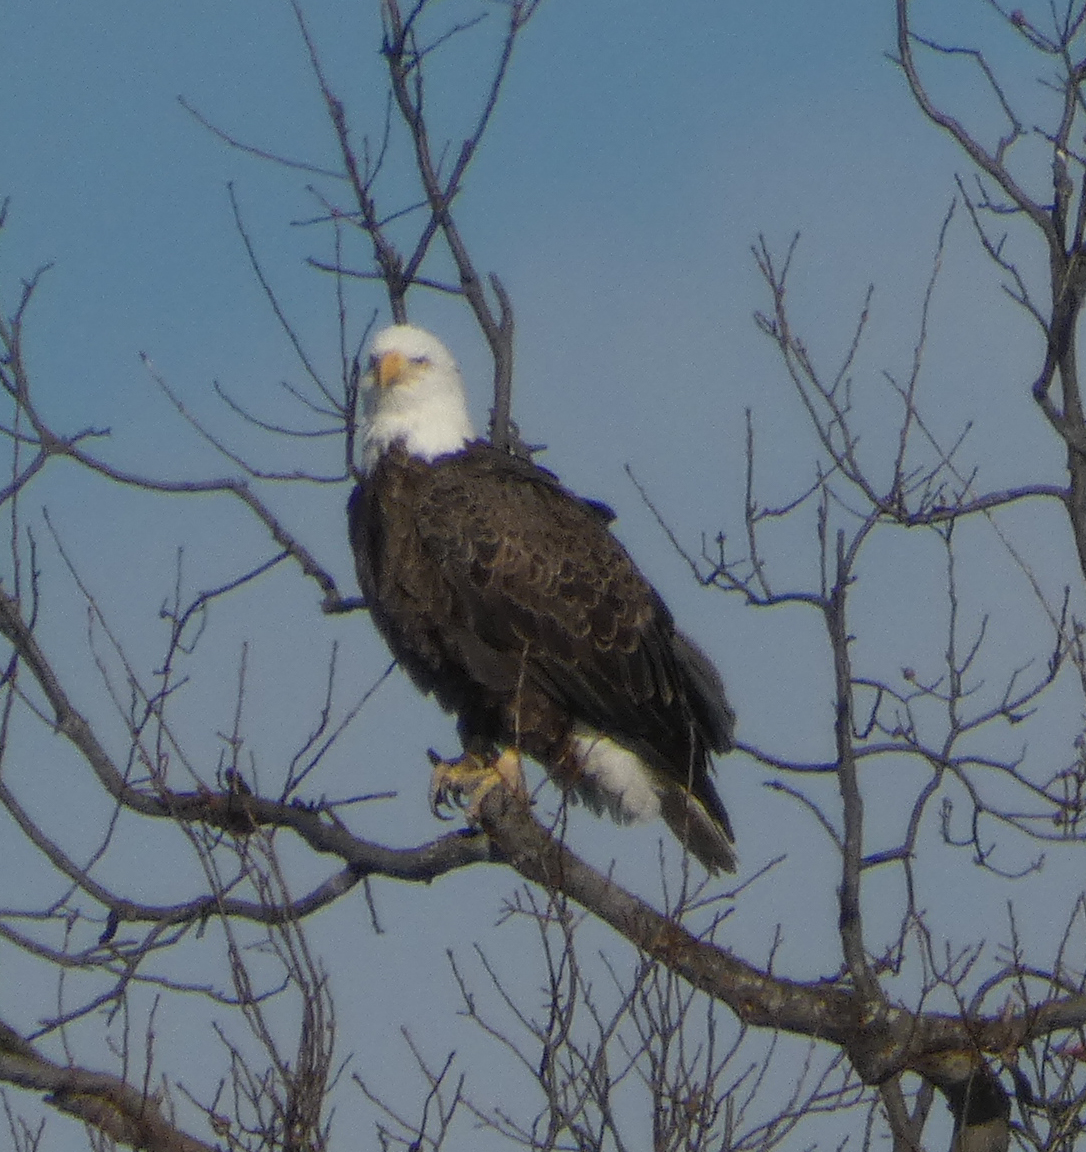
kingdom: Animalia
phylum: Chordata
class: Aves
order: Accipitriformes
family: Accipitridae
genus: Haliaeetus
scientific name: Haliaeetus leucocephalus
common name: Bald eagle
